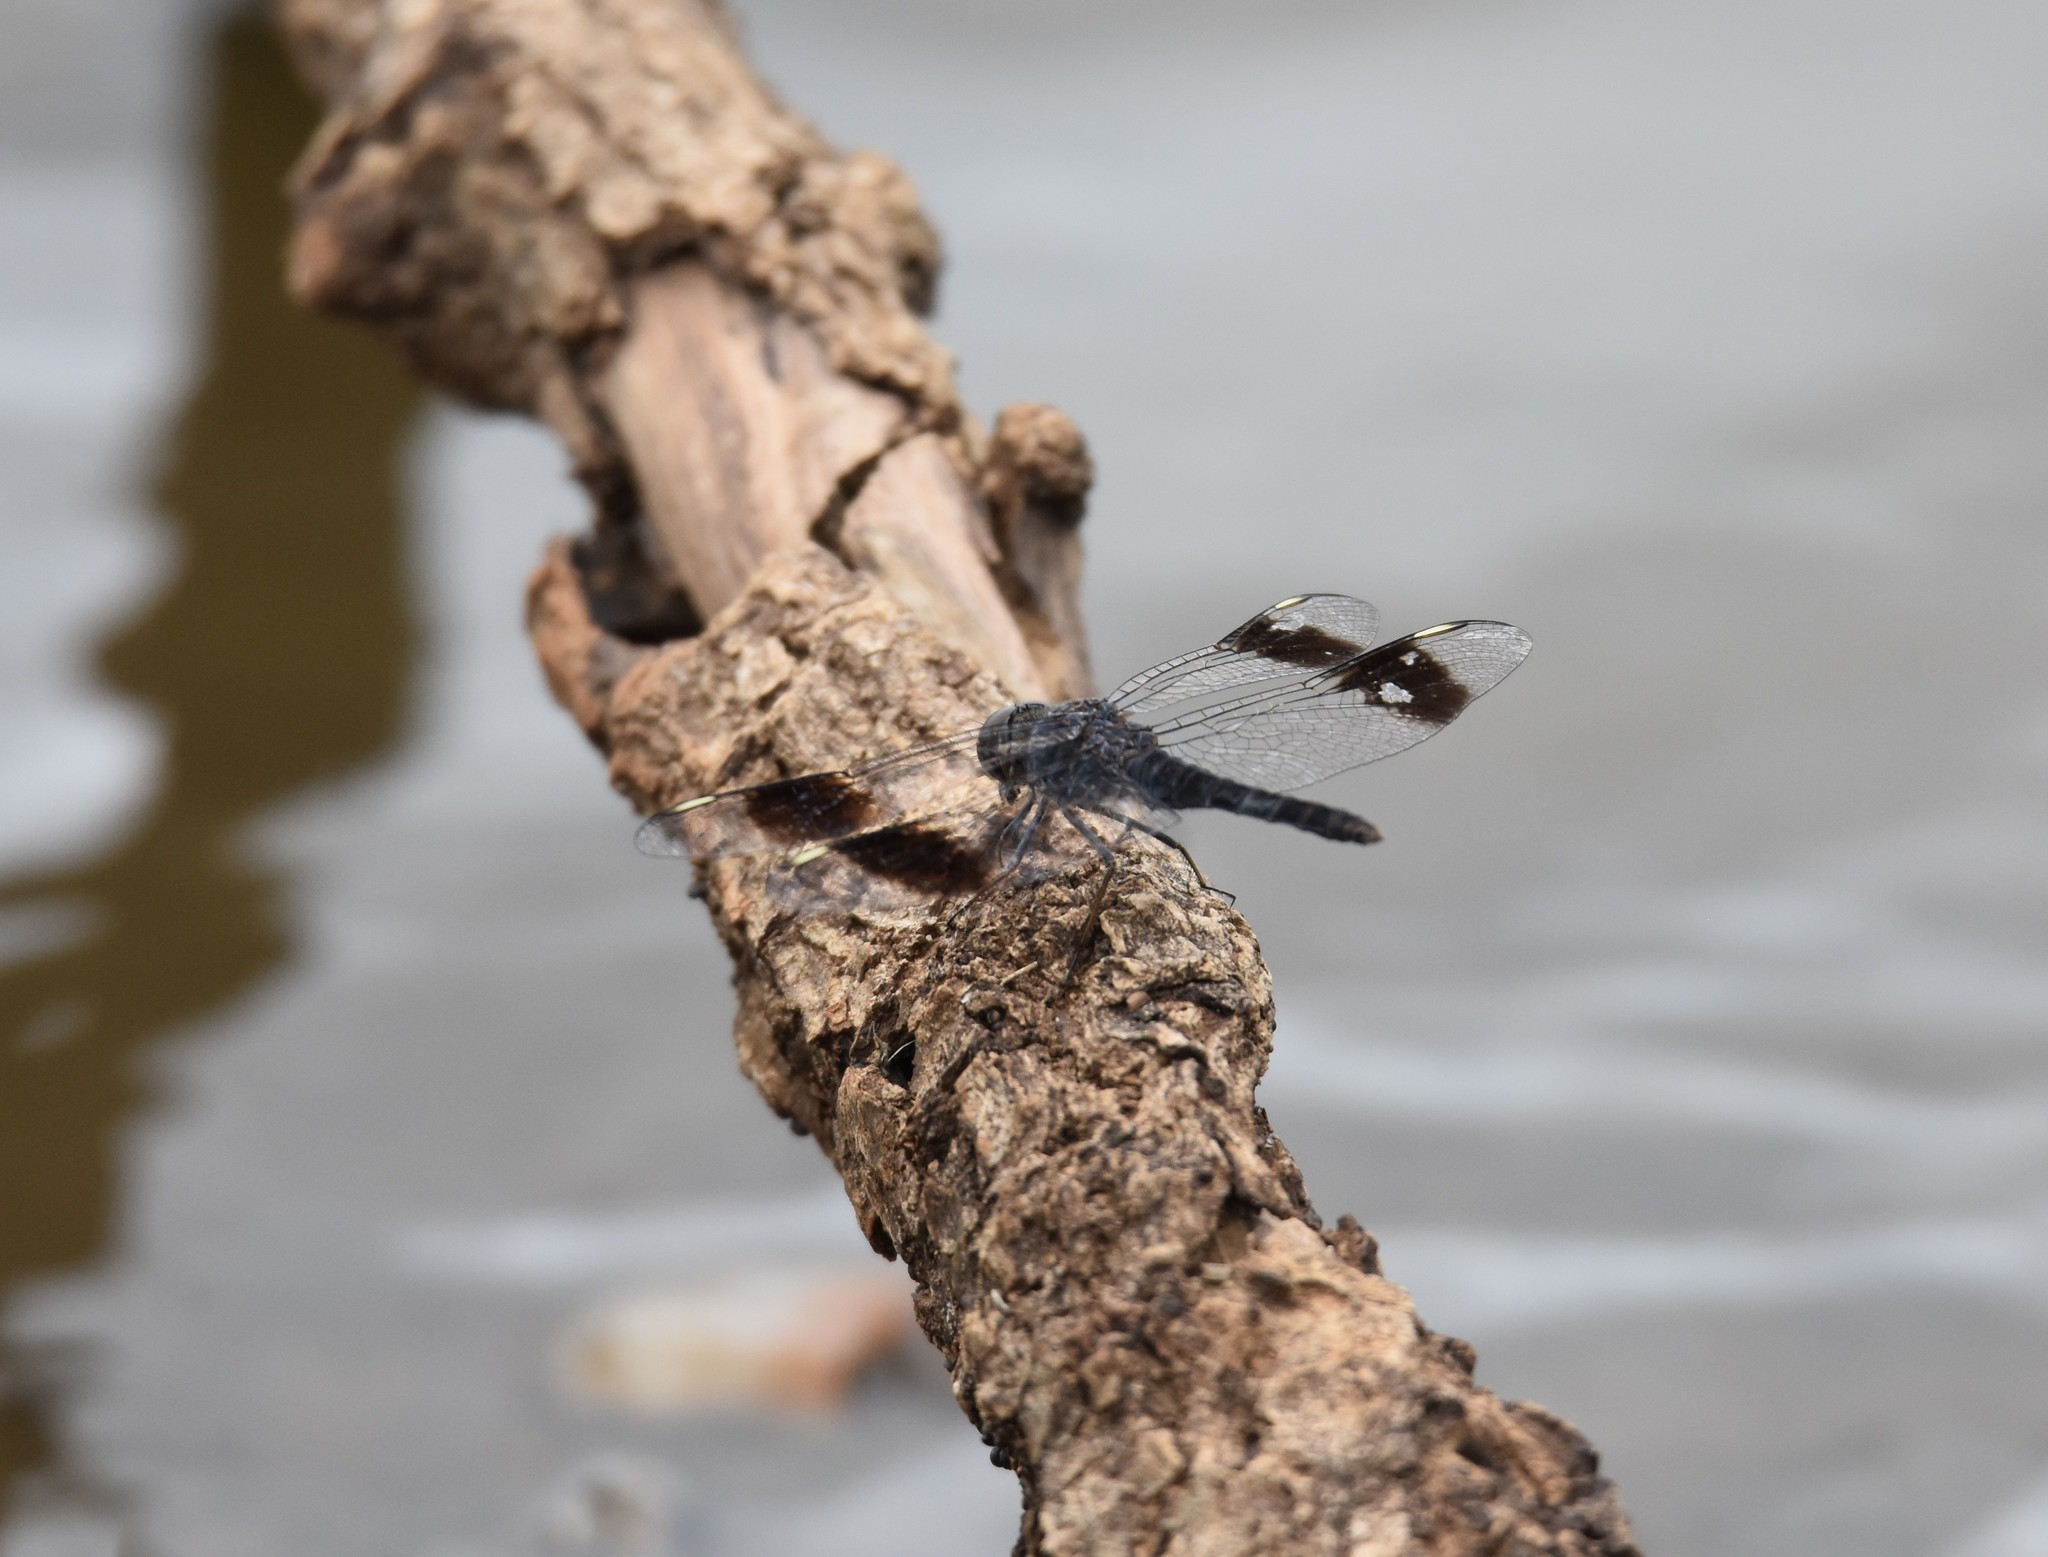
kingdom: Animalia
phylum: Arthropoda
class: Insecta
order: Odonata
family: Libellulidae
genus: Brachythemis
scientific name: Brachythemis leucosticta
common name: Banded groundling
